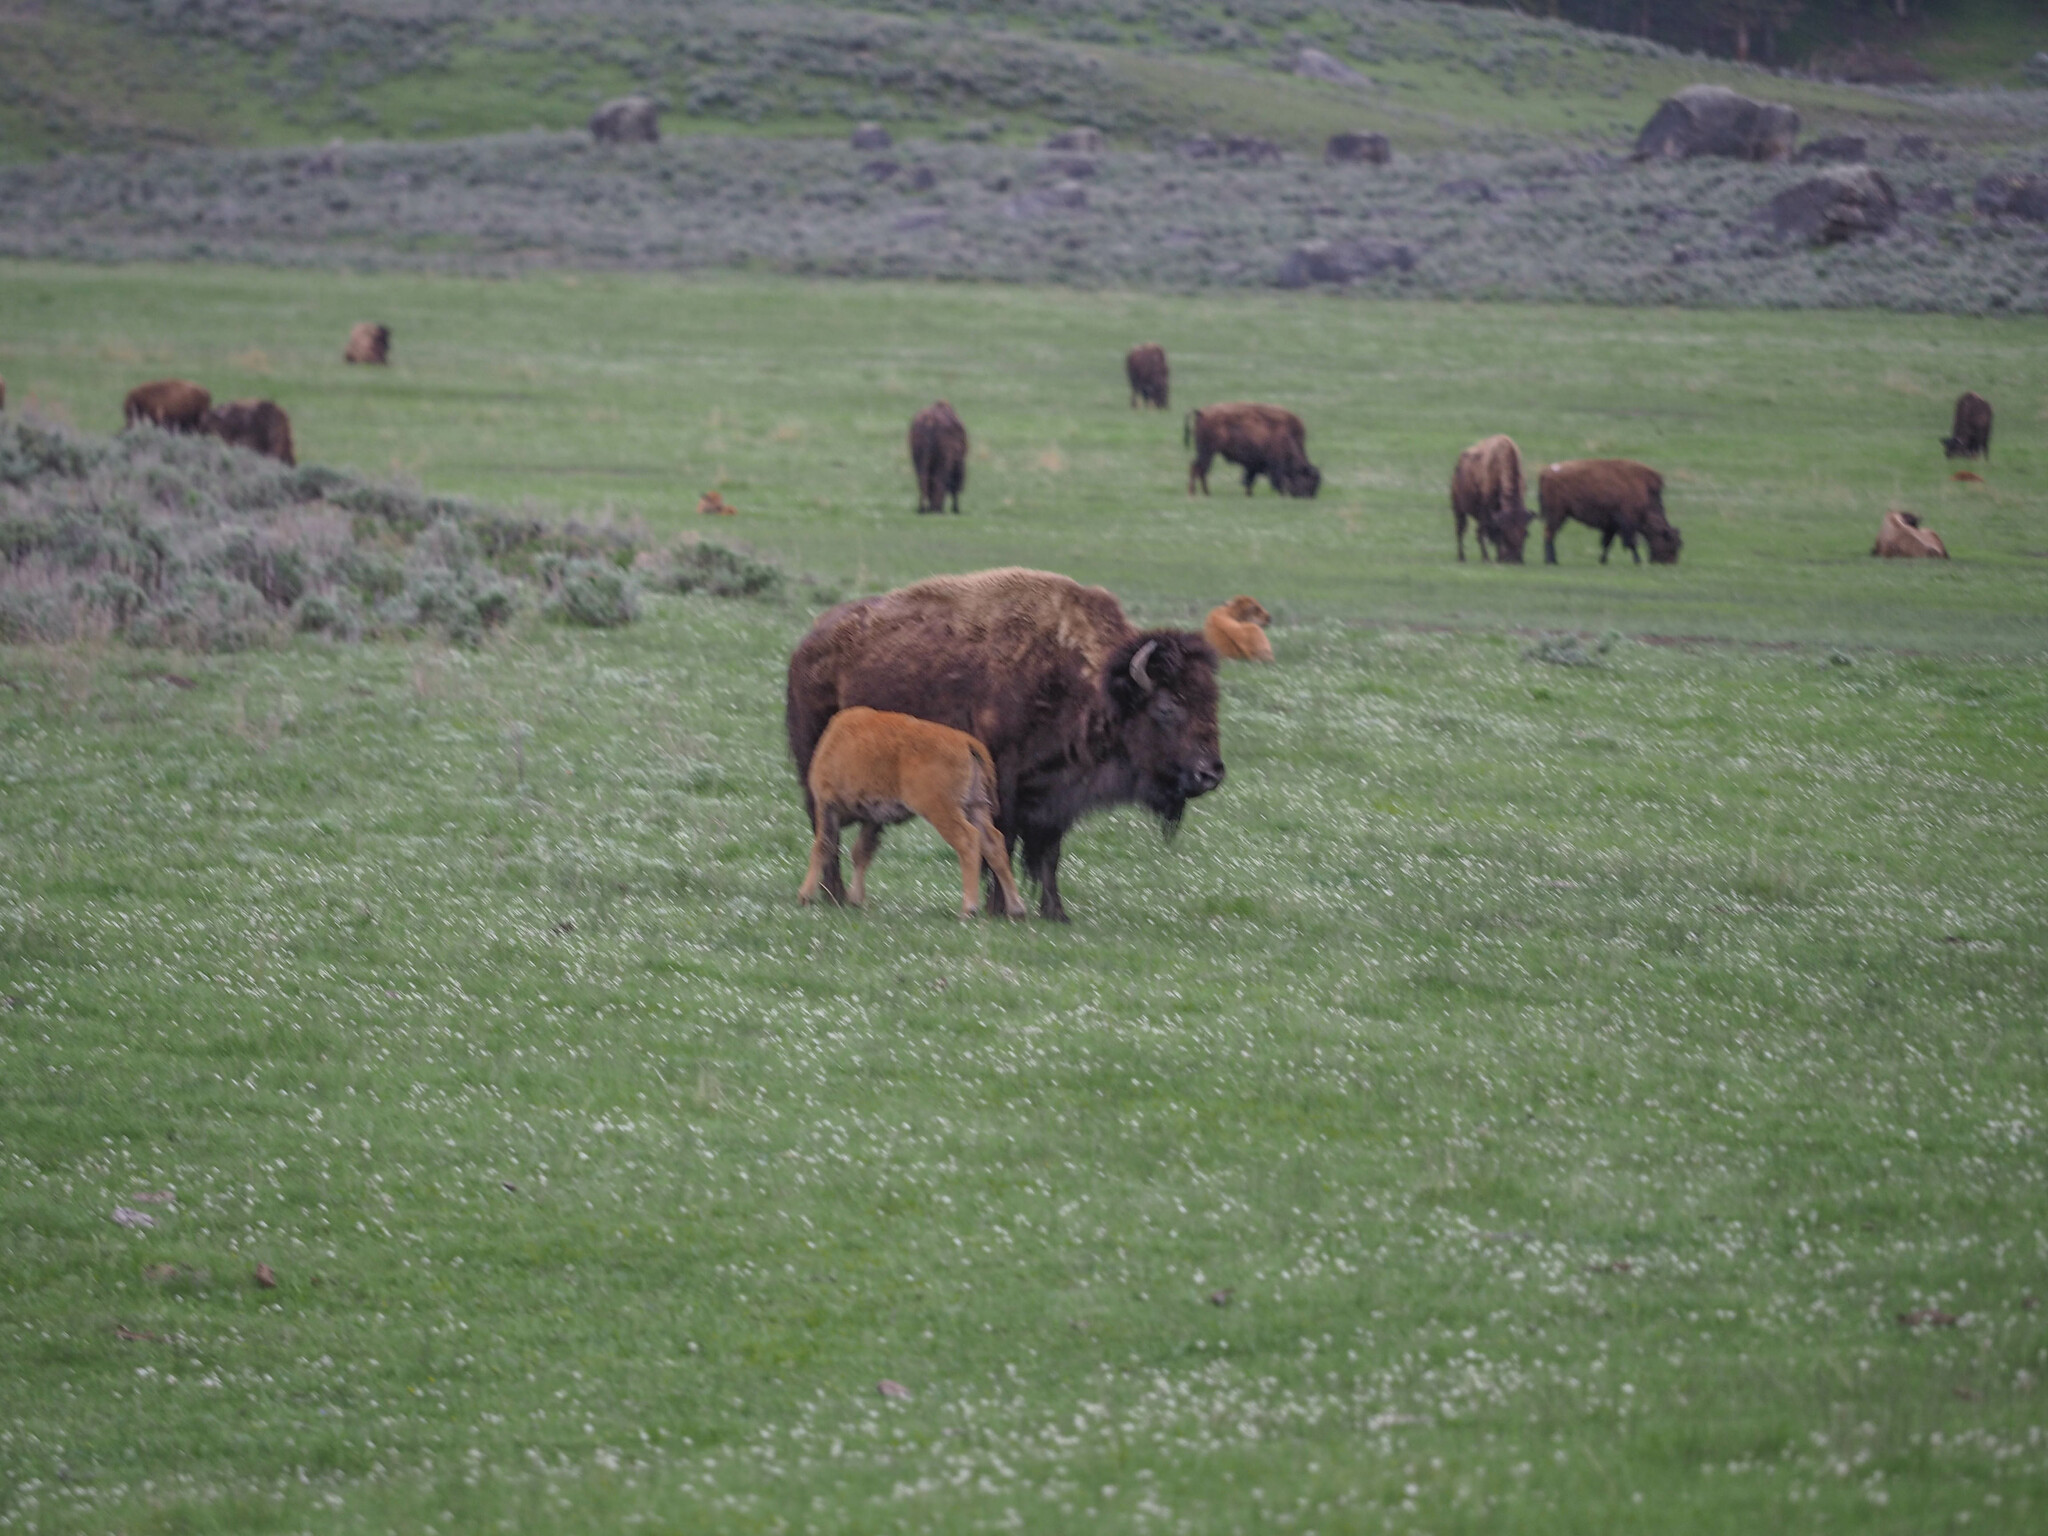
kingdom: Animalia
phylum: Chordata
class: Mammalia
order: Artiodactyla
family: Bovidae
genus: Bison
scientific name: Bison bison
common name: American bison
